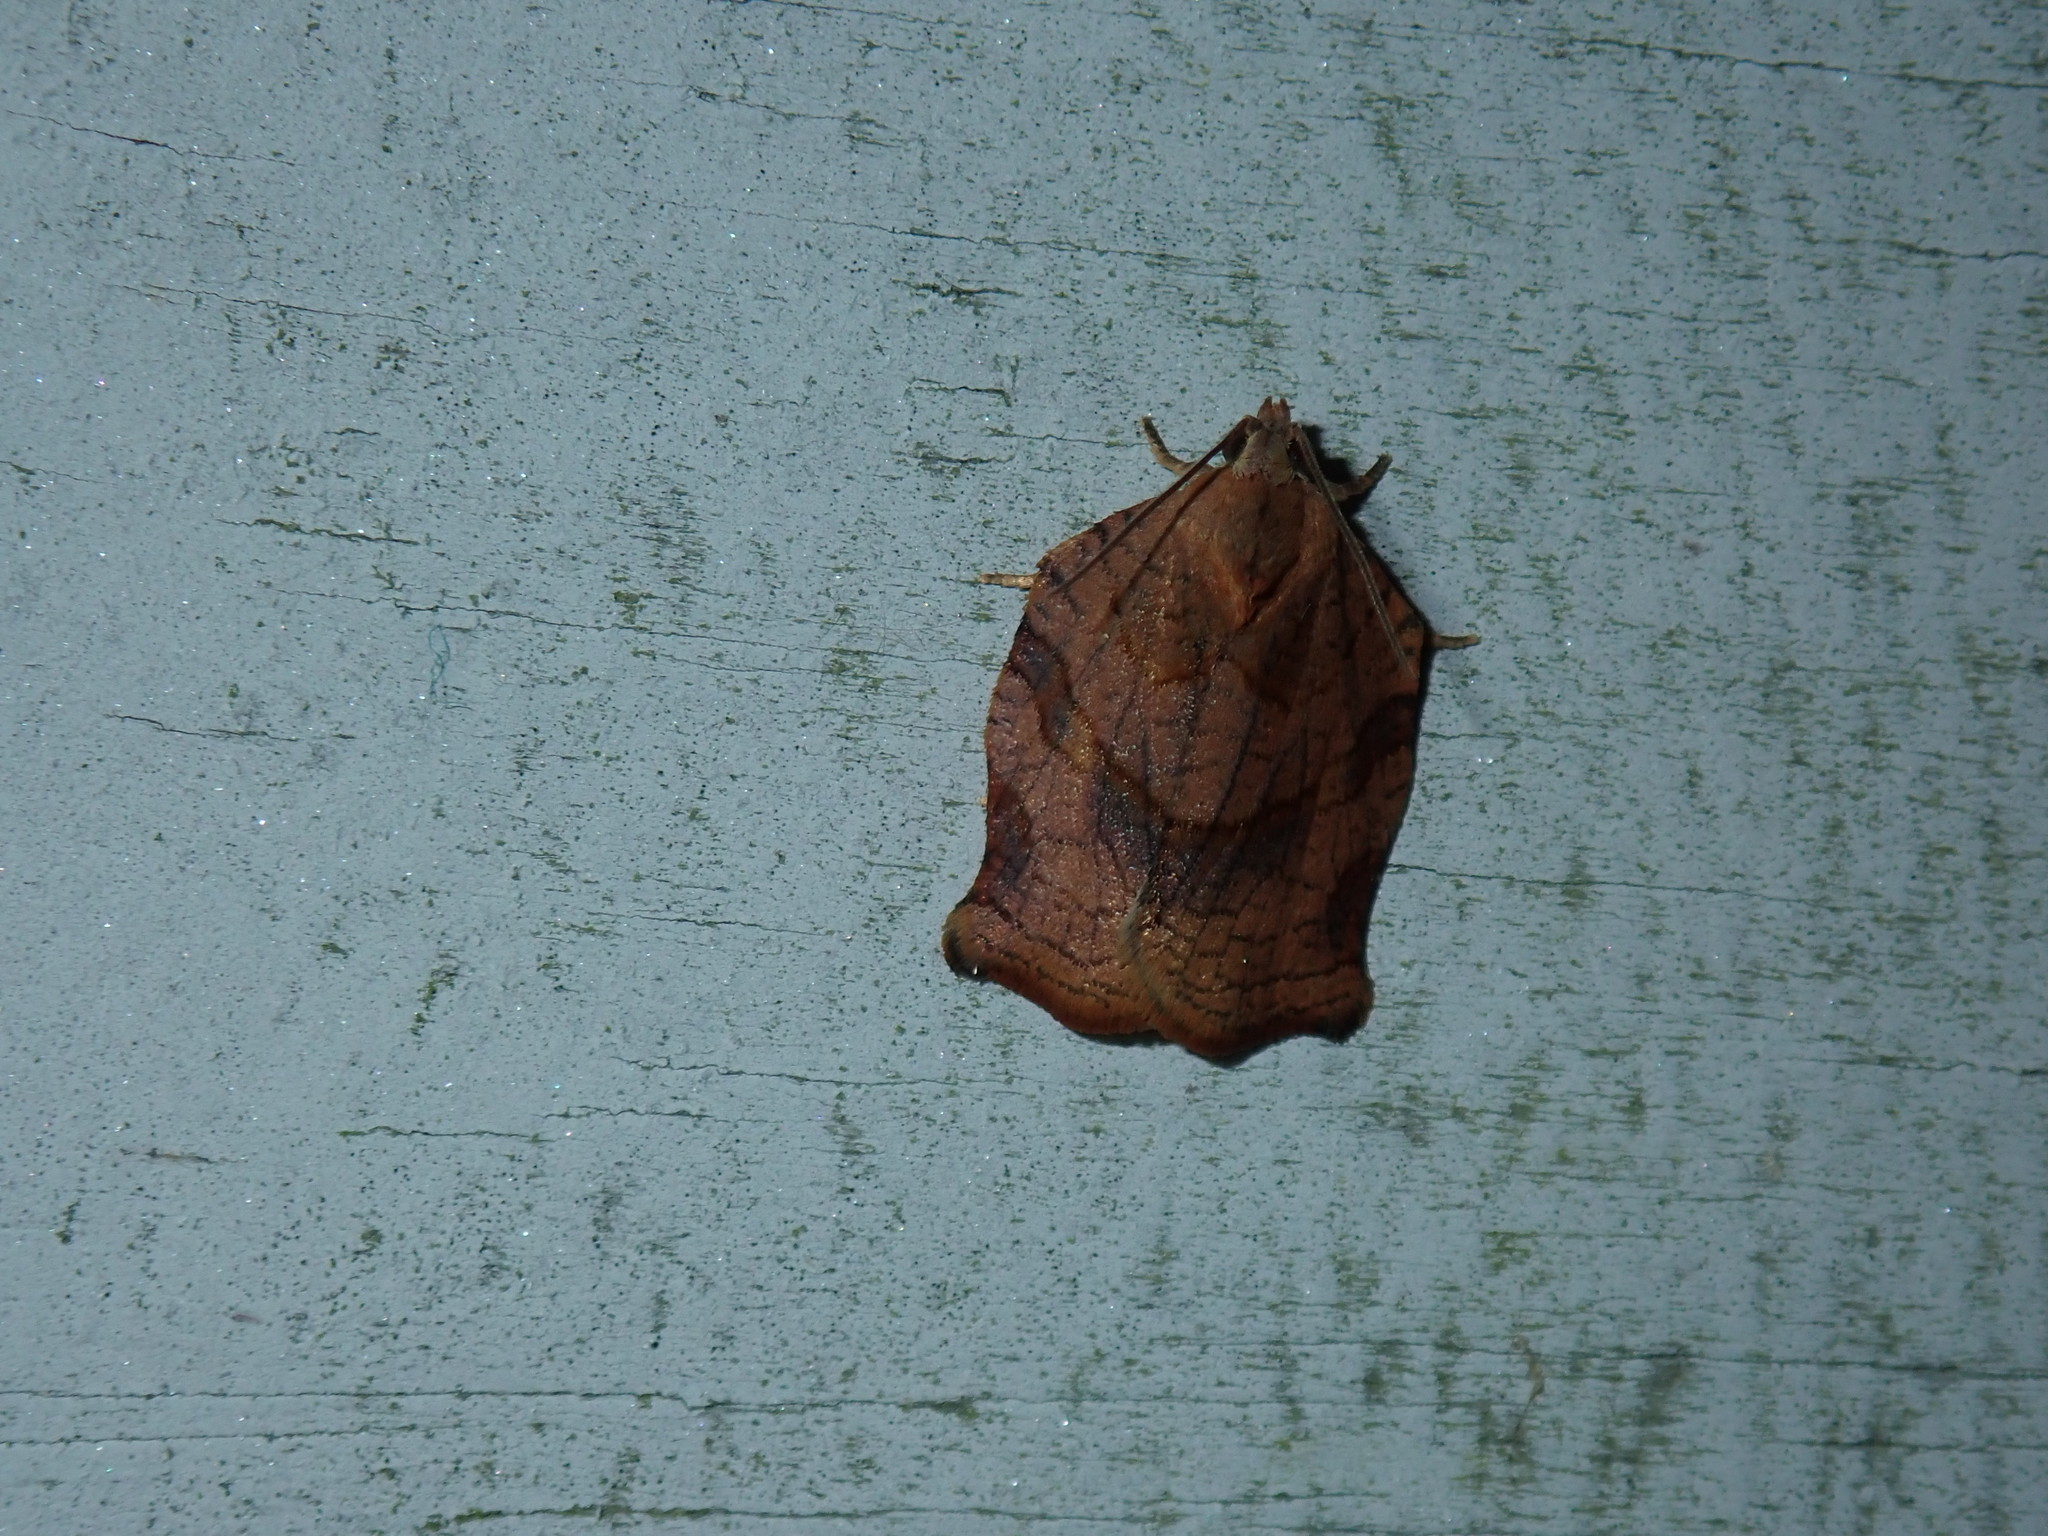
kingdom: Animalia
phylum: Arthropoda
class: Insecta
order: Lepidoptera
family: Tortricidae
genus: Archips
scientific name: Archips purpurana
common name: Omnivorous leafroller
